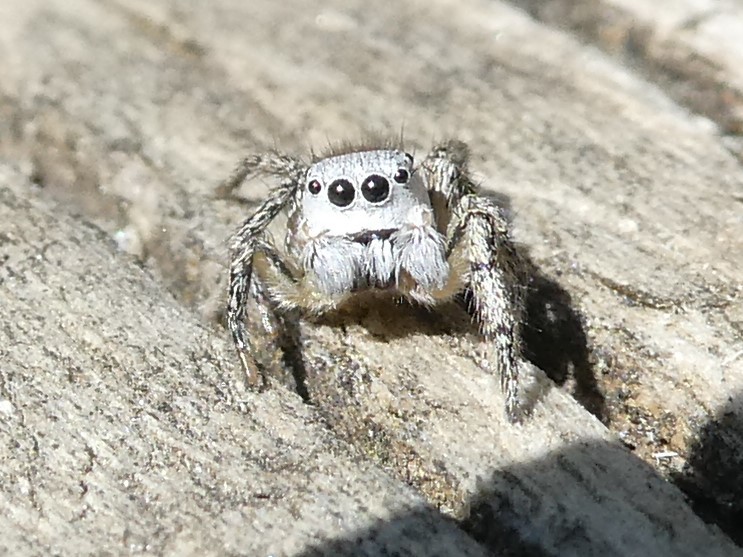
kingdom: Animalia
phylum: Arthropoda
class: Arachnida
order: Araneae
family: Salticidae
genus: Habronattus
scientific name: Habronattus decorus
